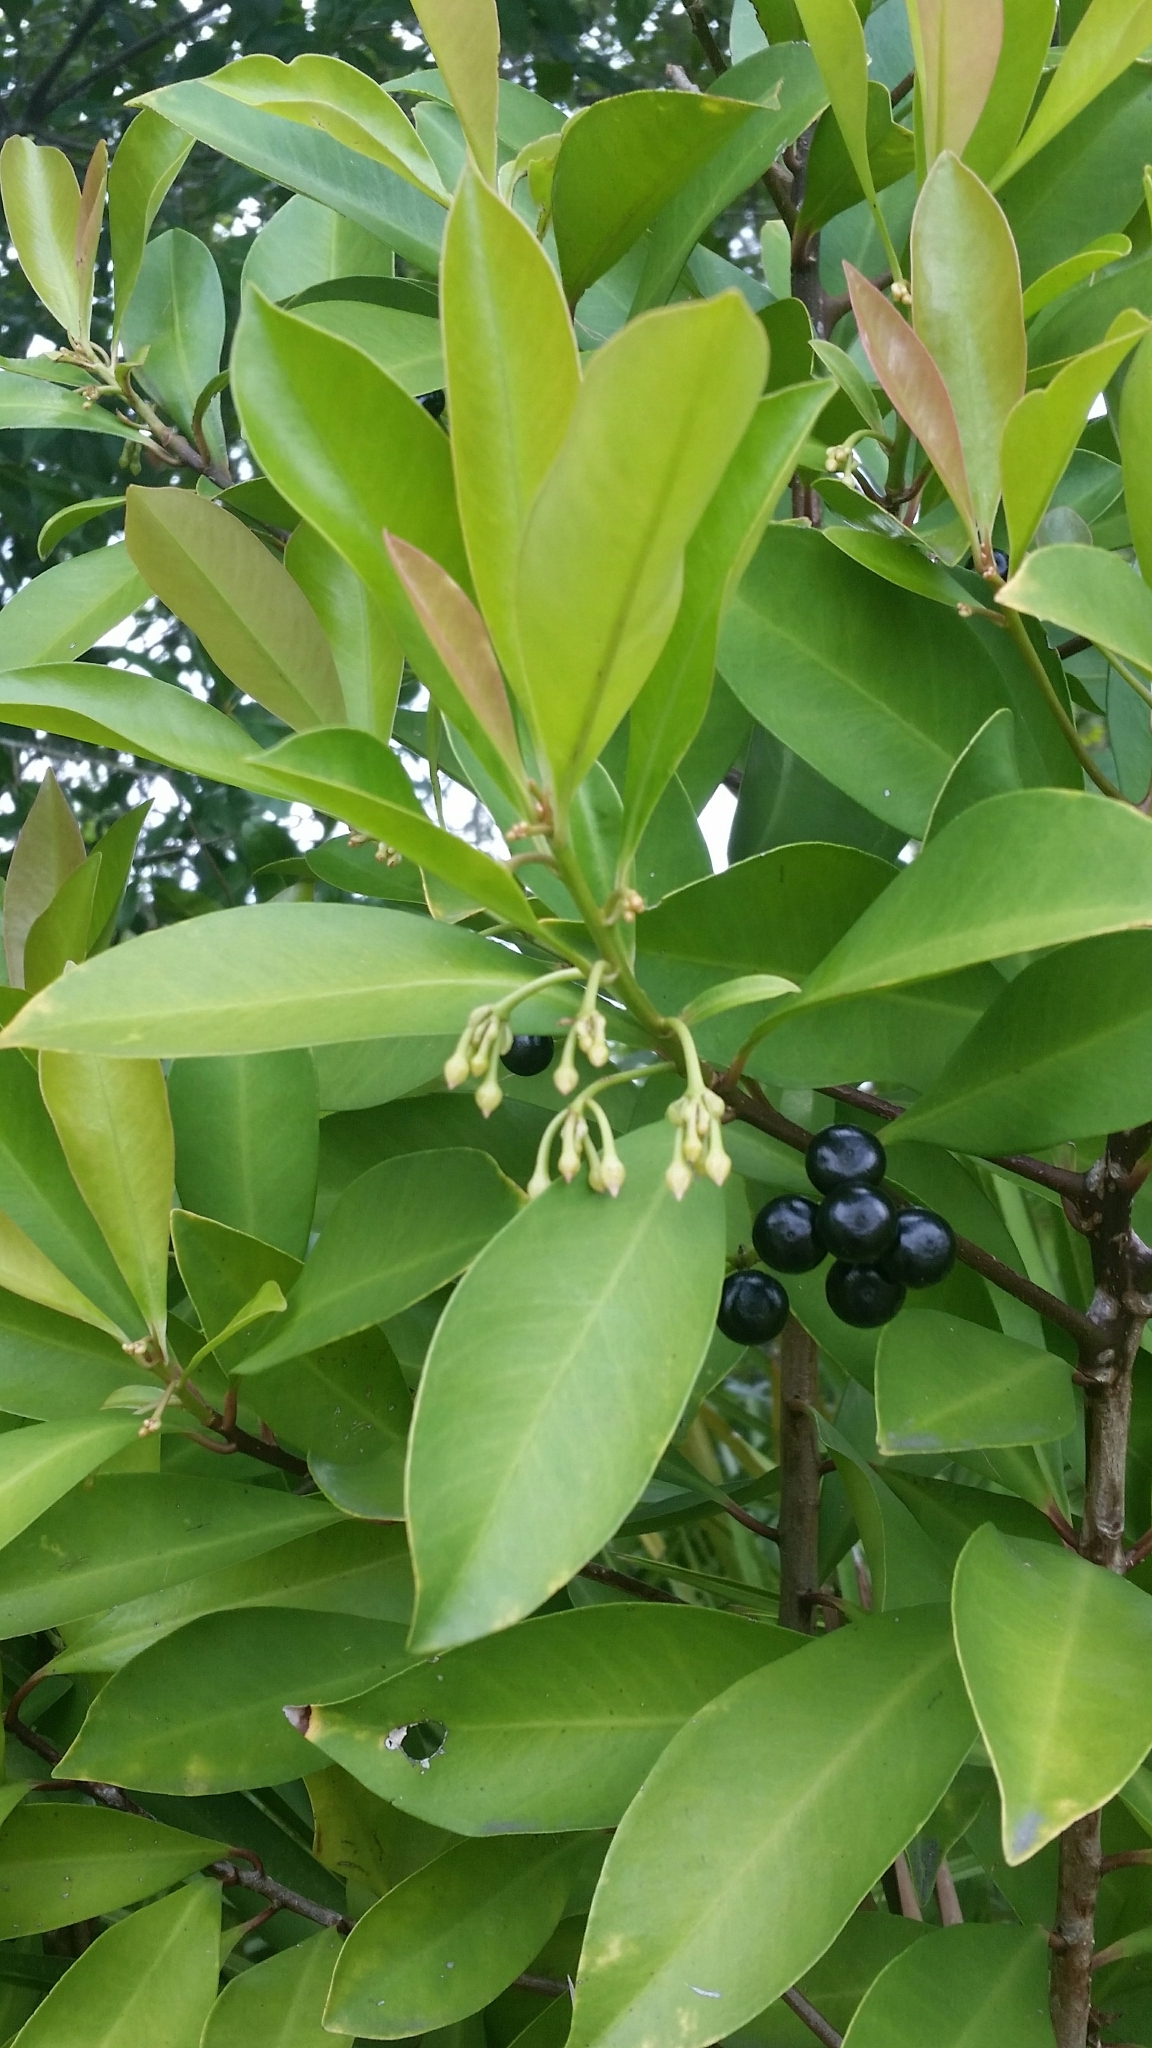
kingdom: Plantae
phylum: Tracheophyta
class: Magnoliopsida
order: Ericales
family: Primulaceae
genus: Ardisia
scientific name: Ardisia elliptica
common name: Shoebutton
